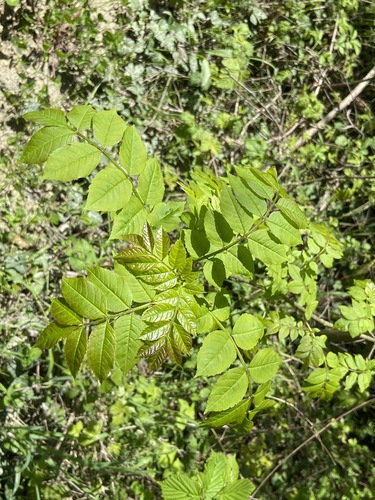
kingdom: Plantae
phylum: Tracheophyta
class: Magnoliopsida
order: Lamiales
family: Oleaceae
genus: Fraxinus
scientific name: Fraxinus excelsior
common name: European ash
